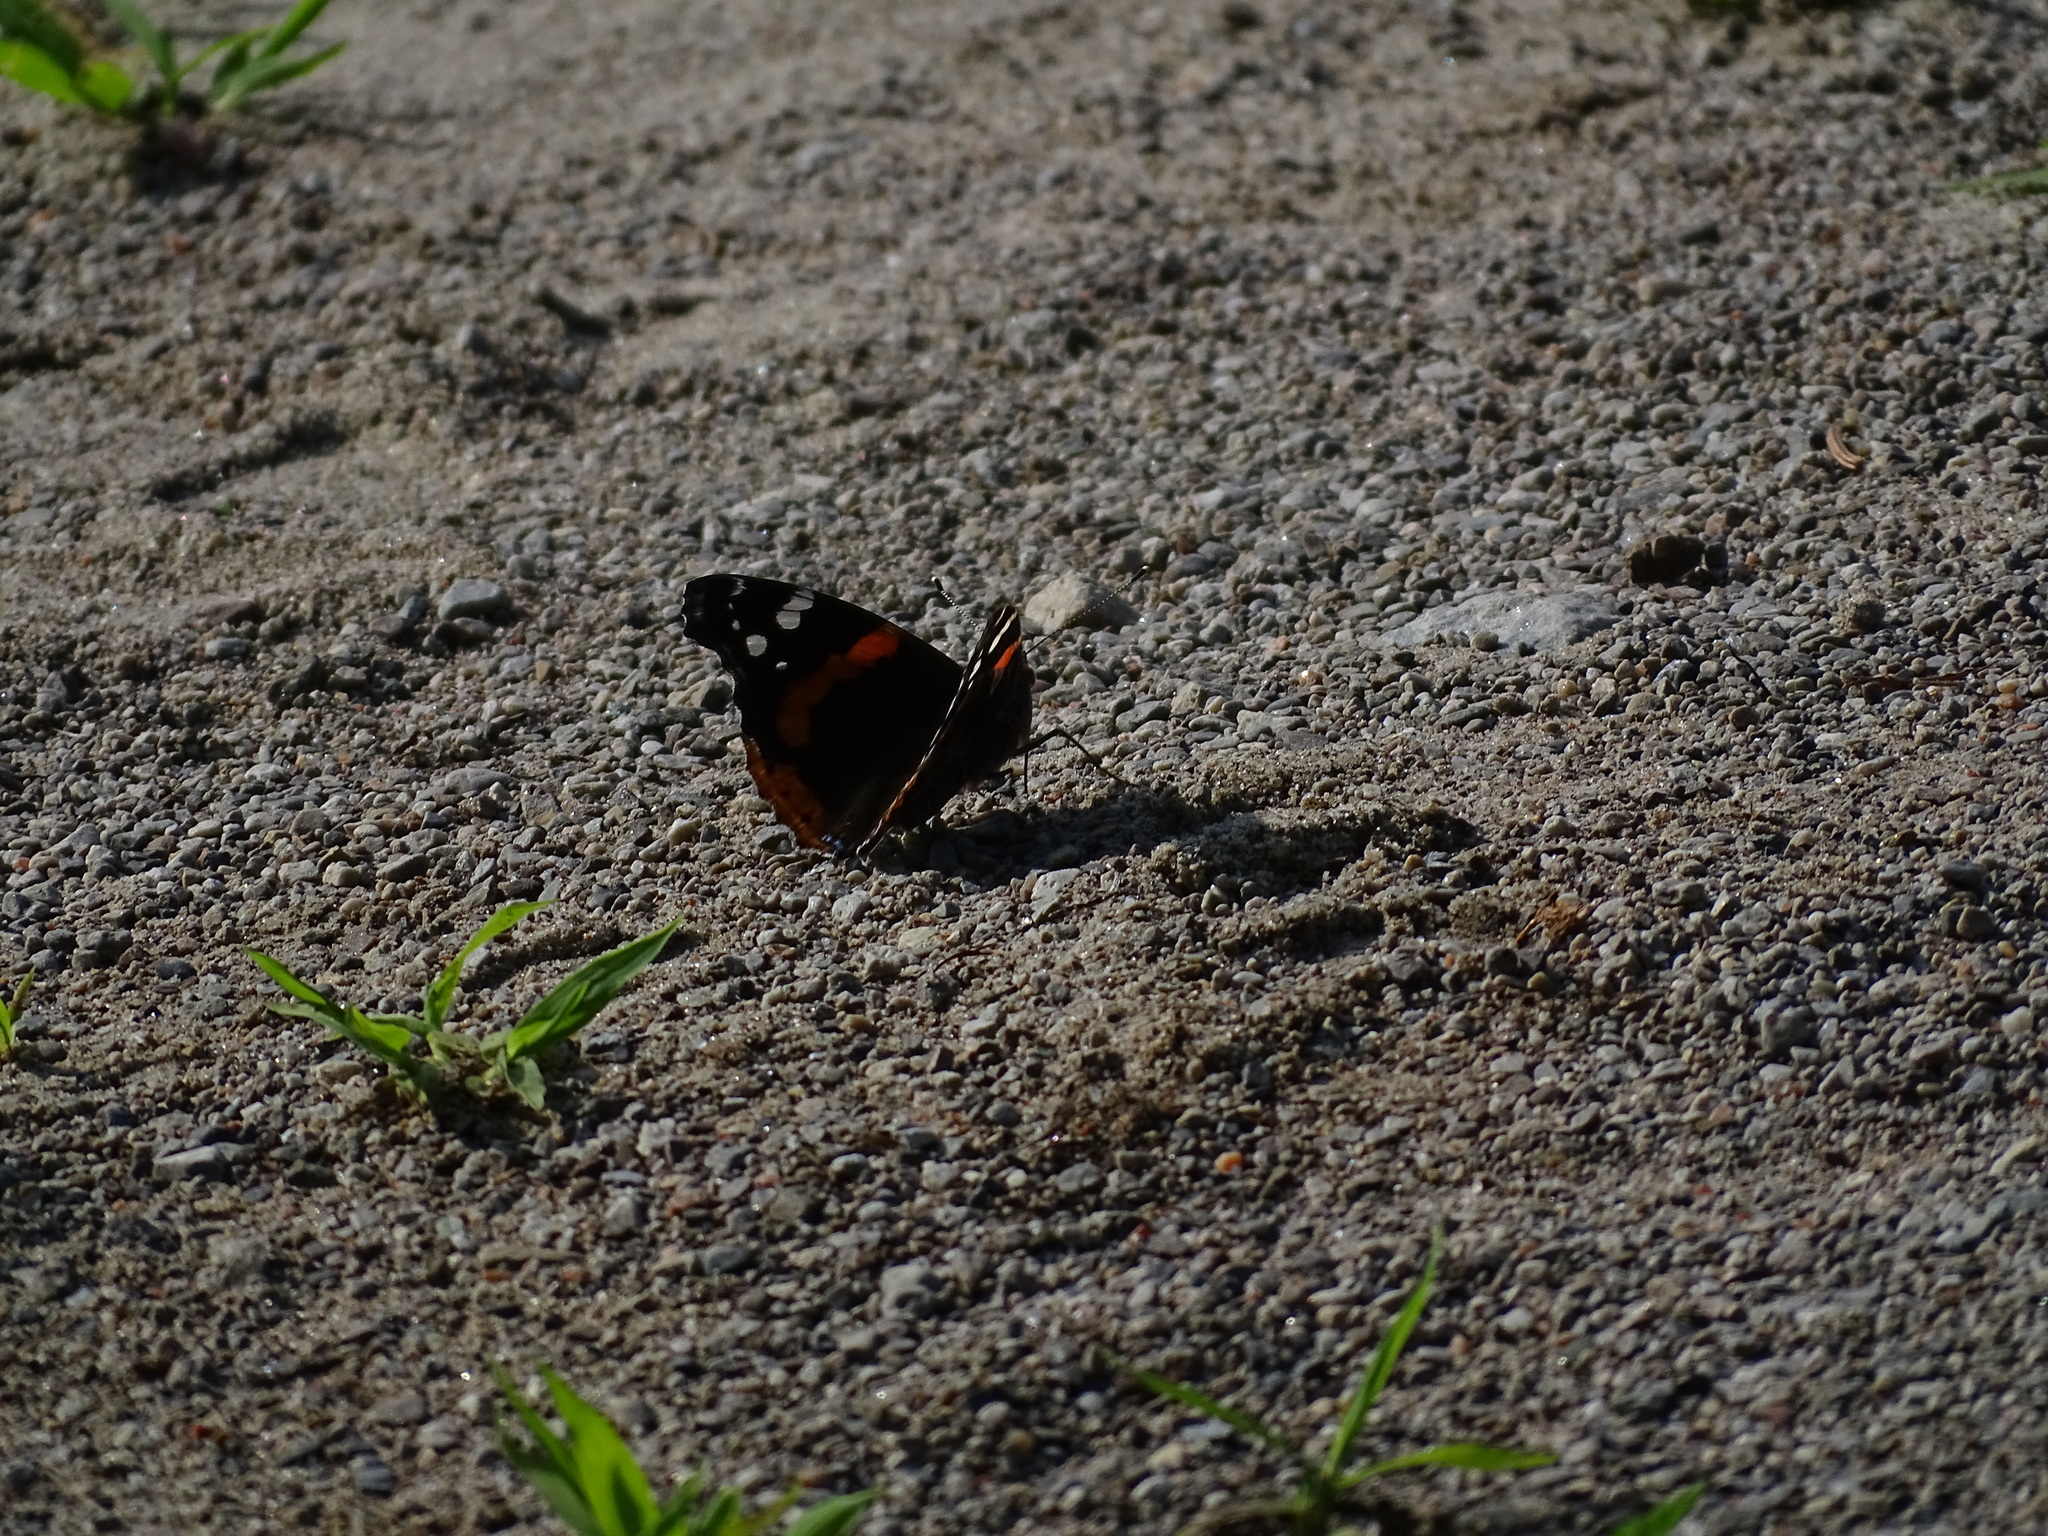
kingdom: Animalia
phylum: Arthropoda
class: Insecta
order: Lepidoptera
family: Nymphalidae
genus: Vanessa
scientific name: Vanessa atalanta
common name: Red admiral
